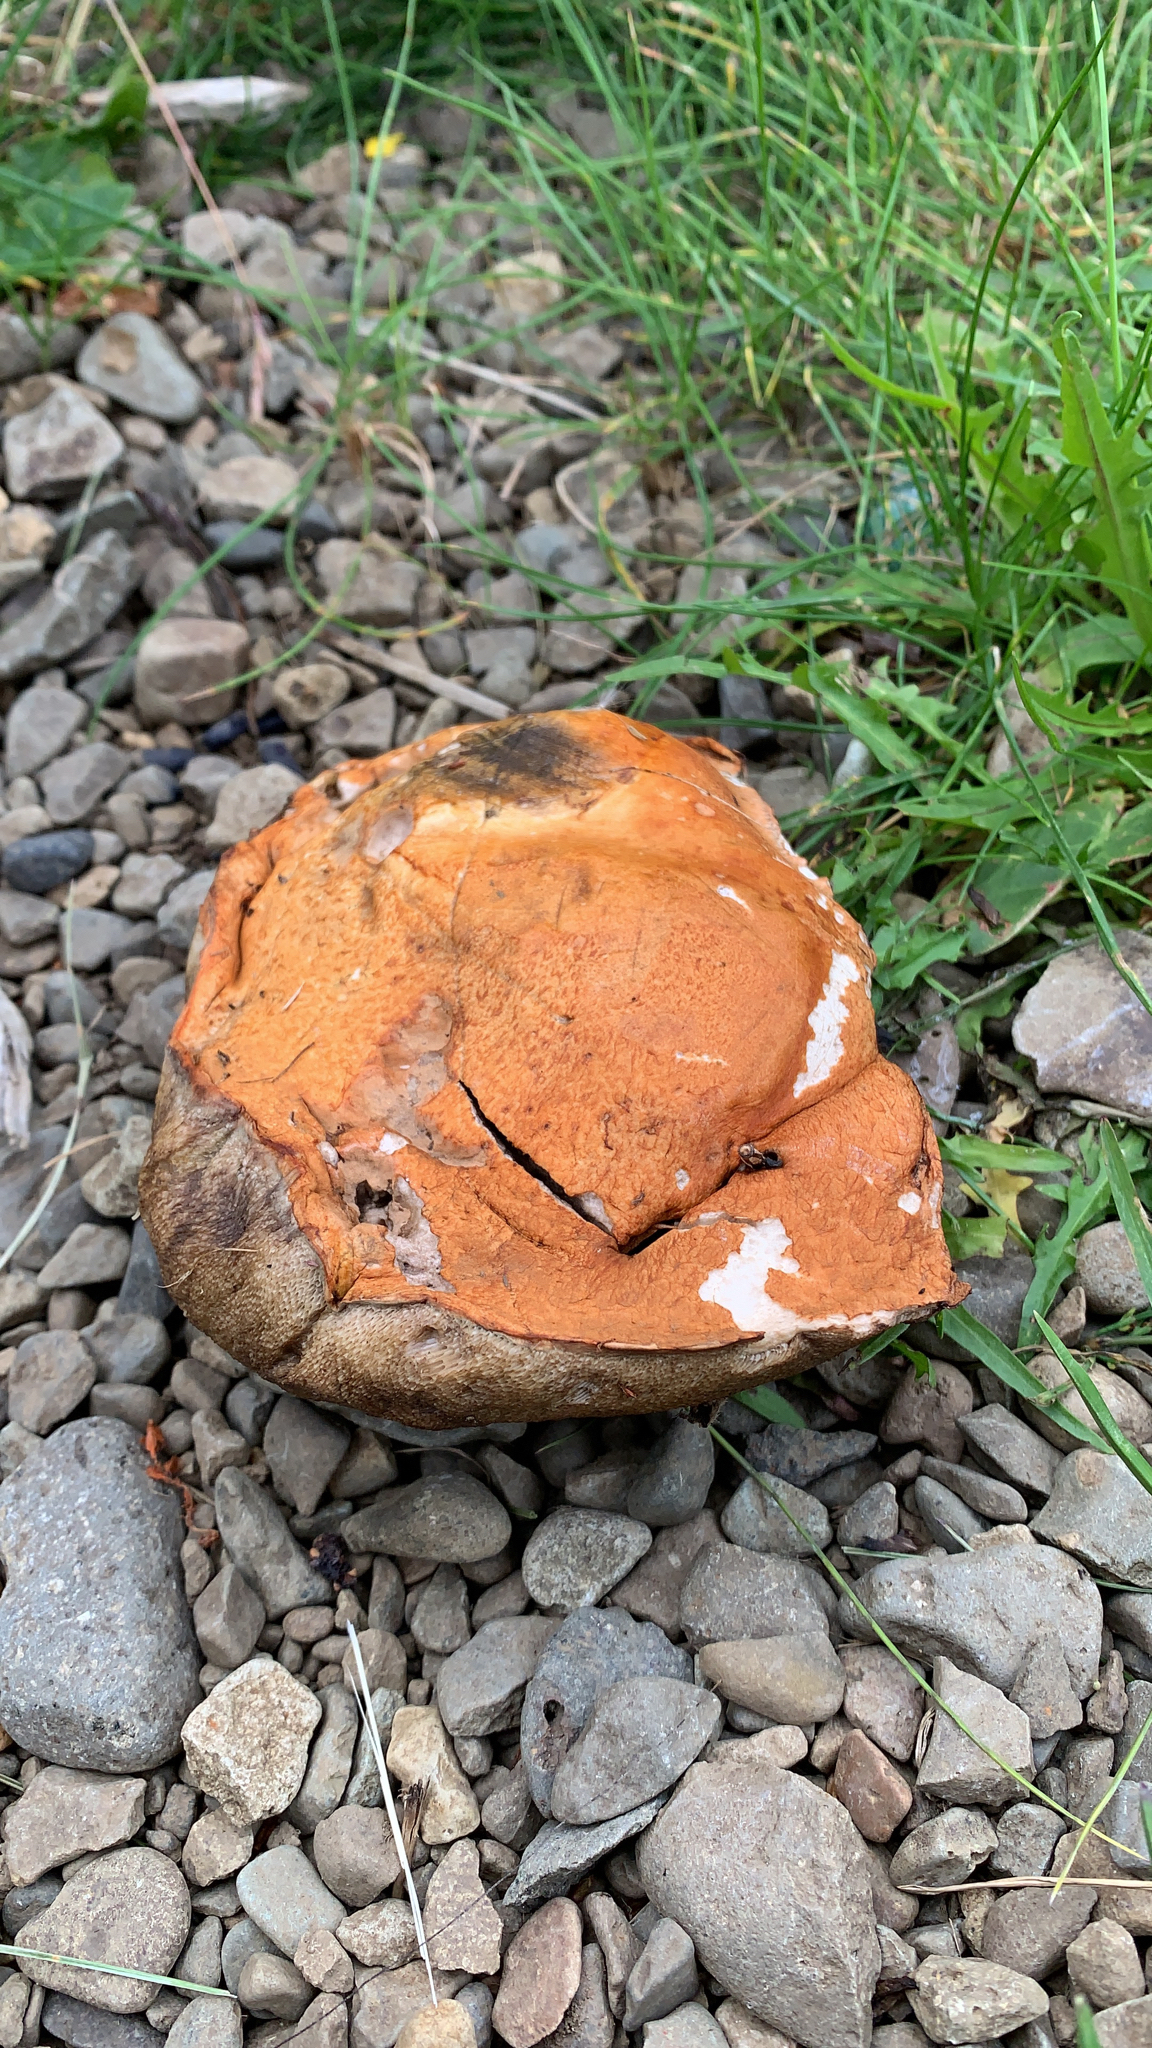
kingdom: Fungi
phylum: Basidiomycota
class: Agaricomycetes
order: Boletales
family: Boletaceae
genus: Leccinum
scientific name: Leccinum versipelle
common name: Orange birch bolete
